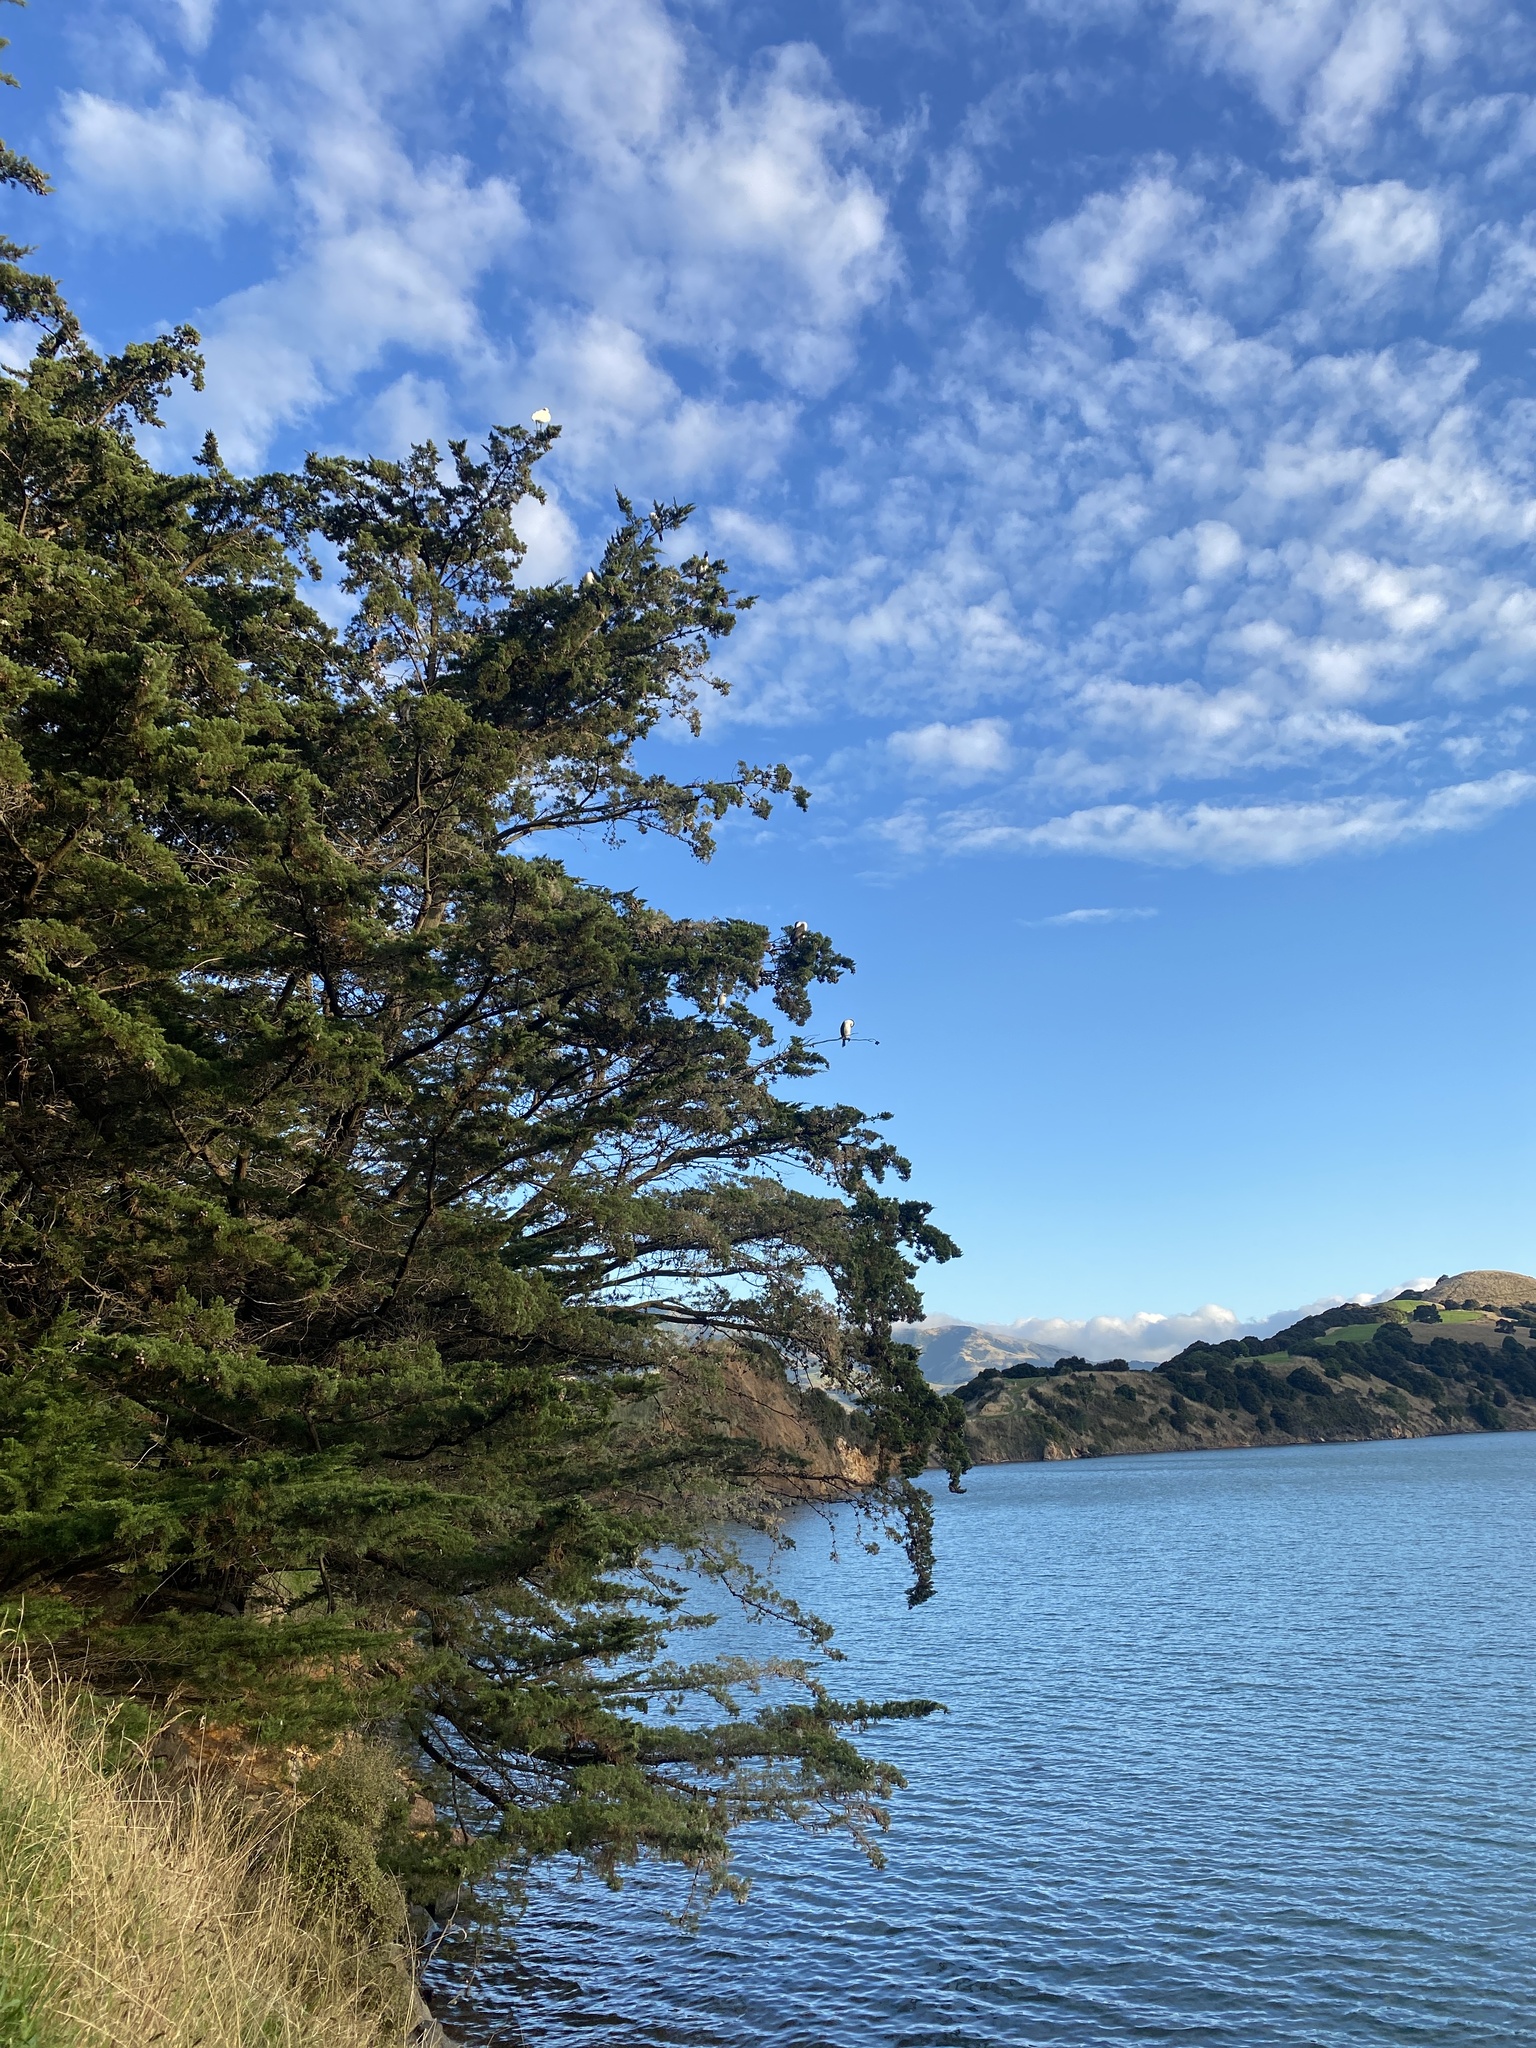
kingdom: Animalia
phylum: Chordata
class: Aves
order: Suliformes
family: Phalacrocoracidae
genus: Phalacrocorax
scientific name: Phalacrocorax varius
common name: Pied cormorant
